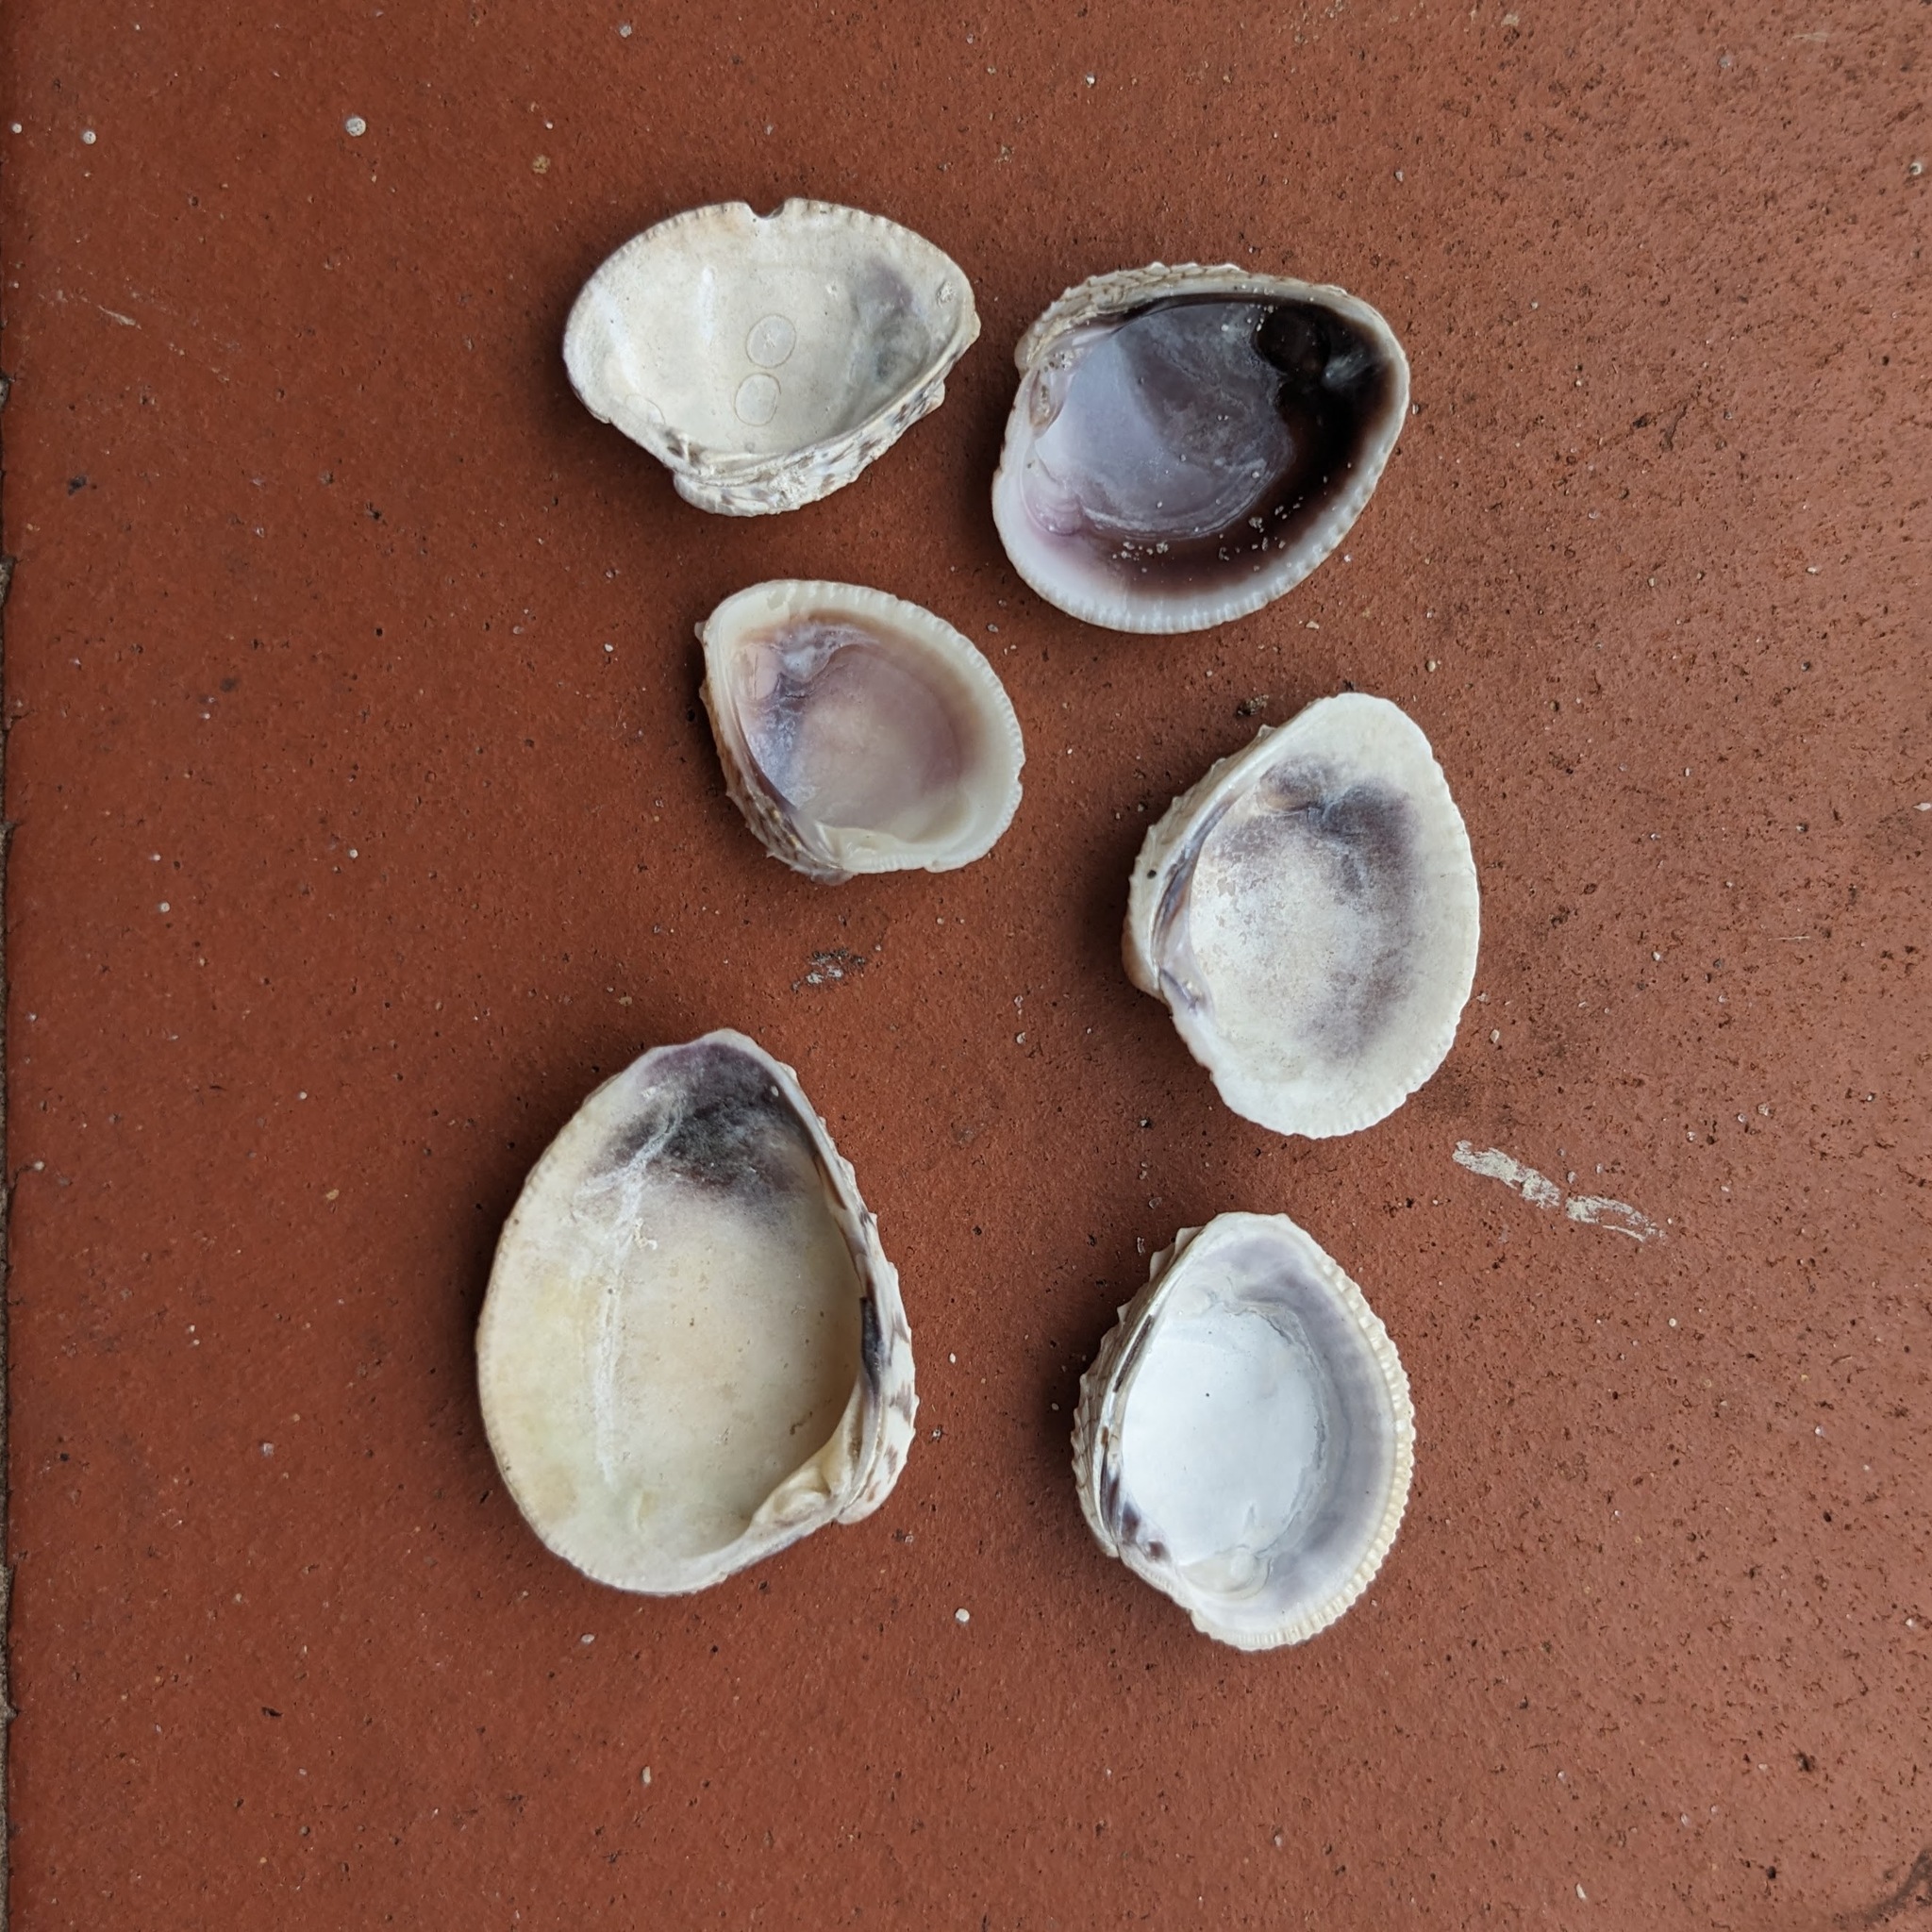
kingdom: Animalia
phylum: Mollusca
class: Bivalvia
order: Venerida
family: Veneridae
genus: Chione
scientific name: Chione elevata
